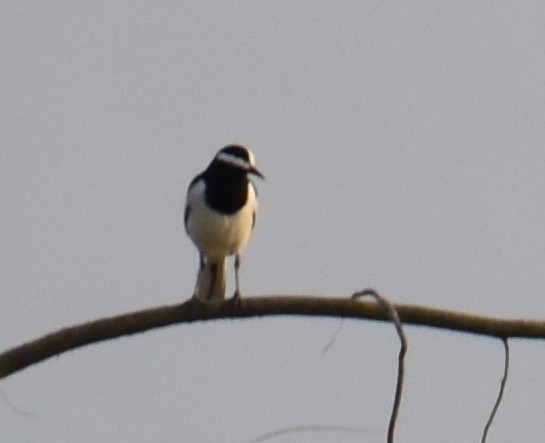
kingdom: Animalia
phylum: Chordata
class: Aves
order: Passeriformes
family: Motacillidae
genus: Motacilla
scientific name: Motacilla maderaspatensis
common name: White-browed wagtail
